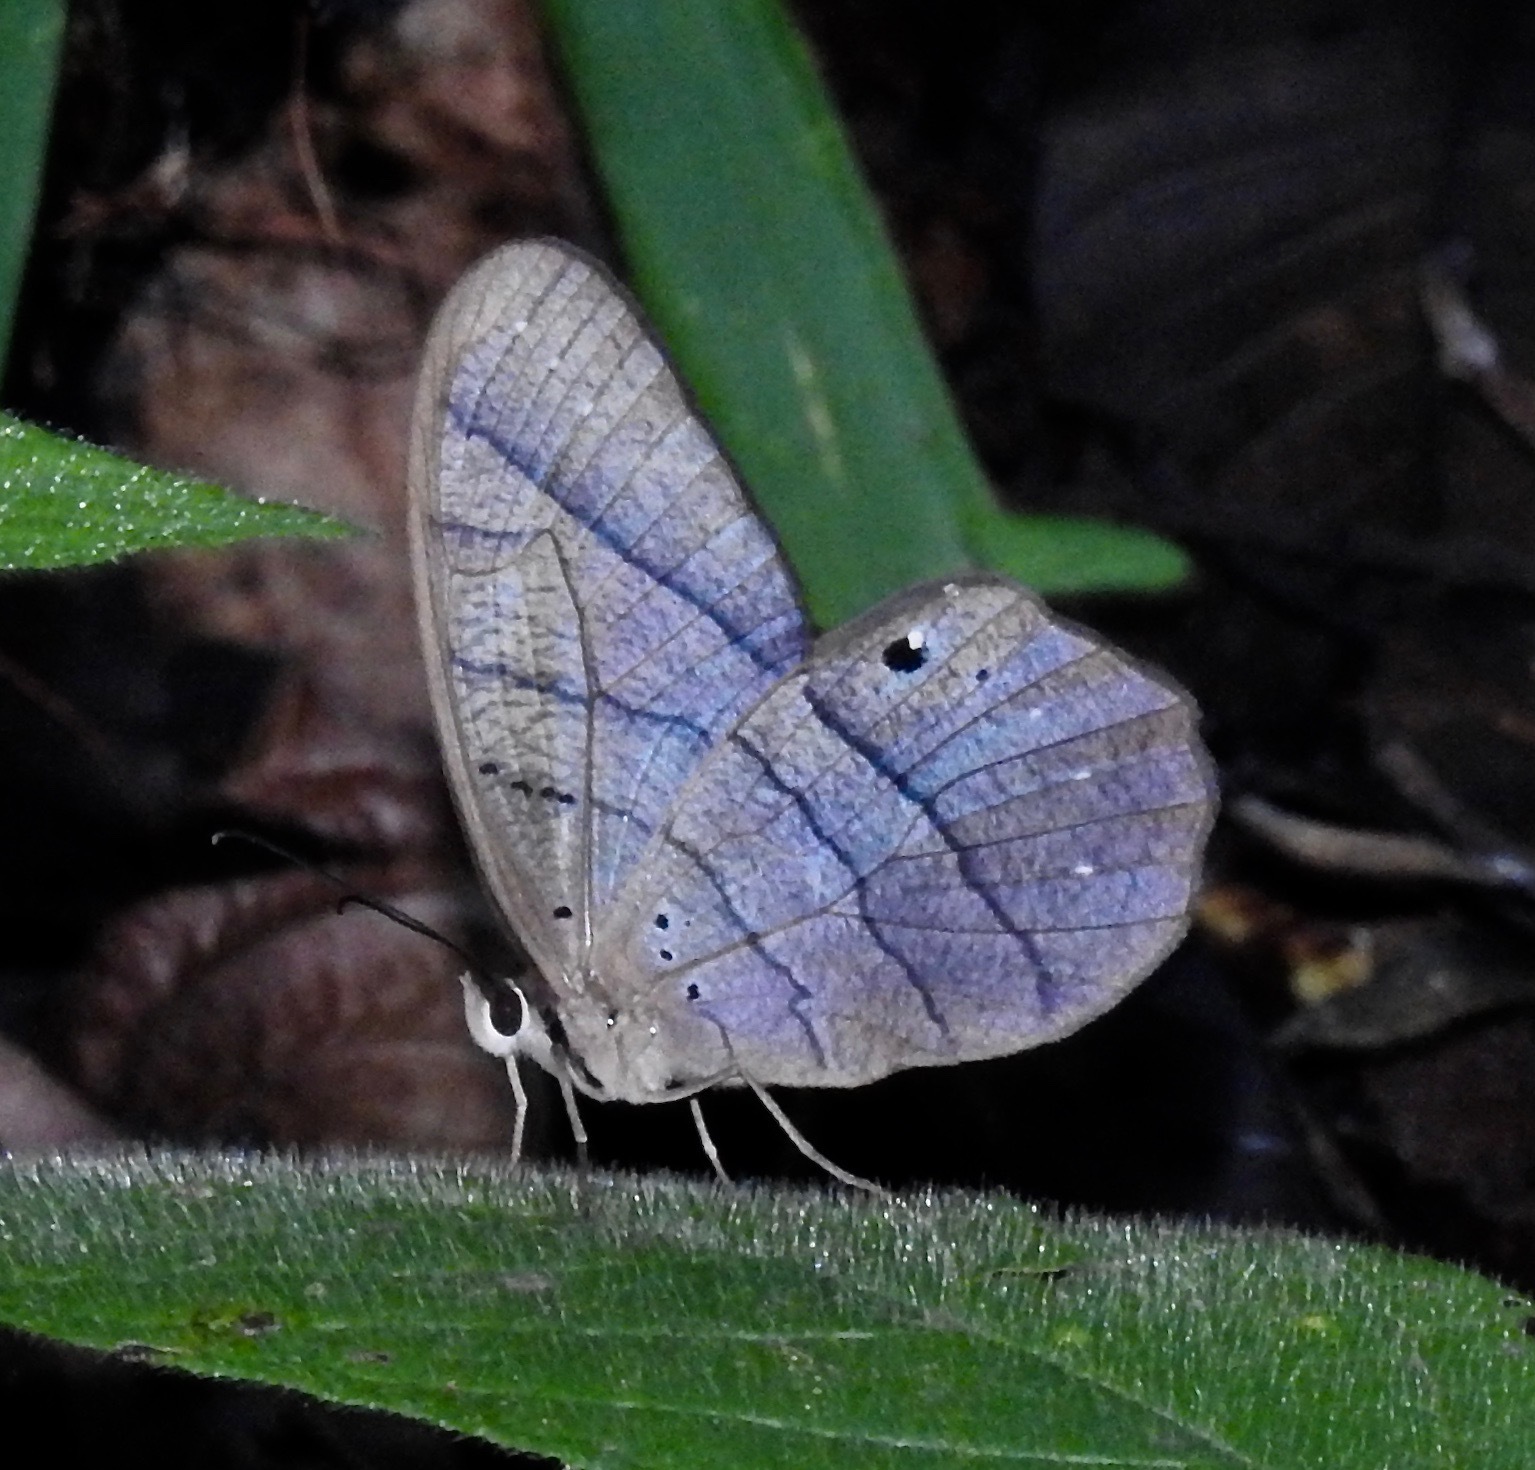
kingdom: Animalia
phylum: Arthropoda
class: Insecta
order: Lepidoptera
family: Nymphalidae
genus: Pierella
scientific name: Pierella lena
